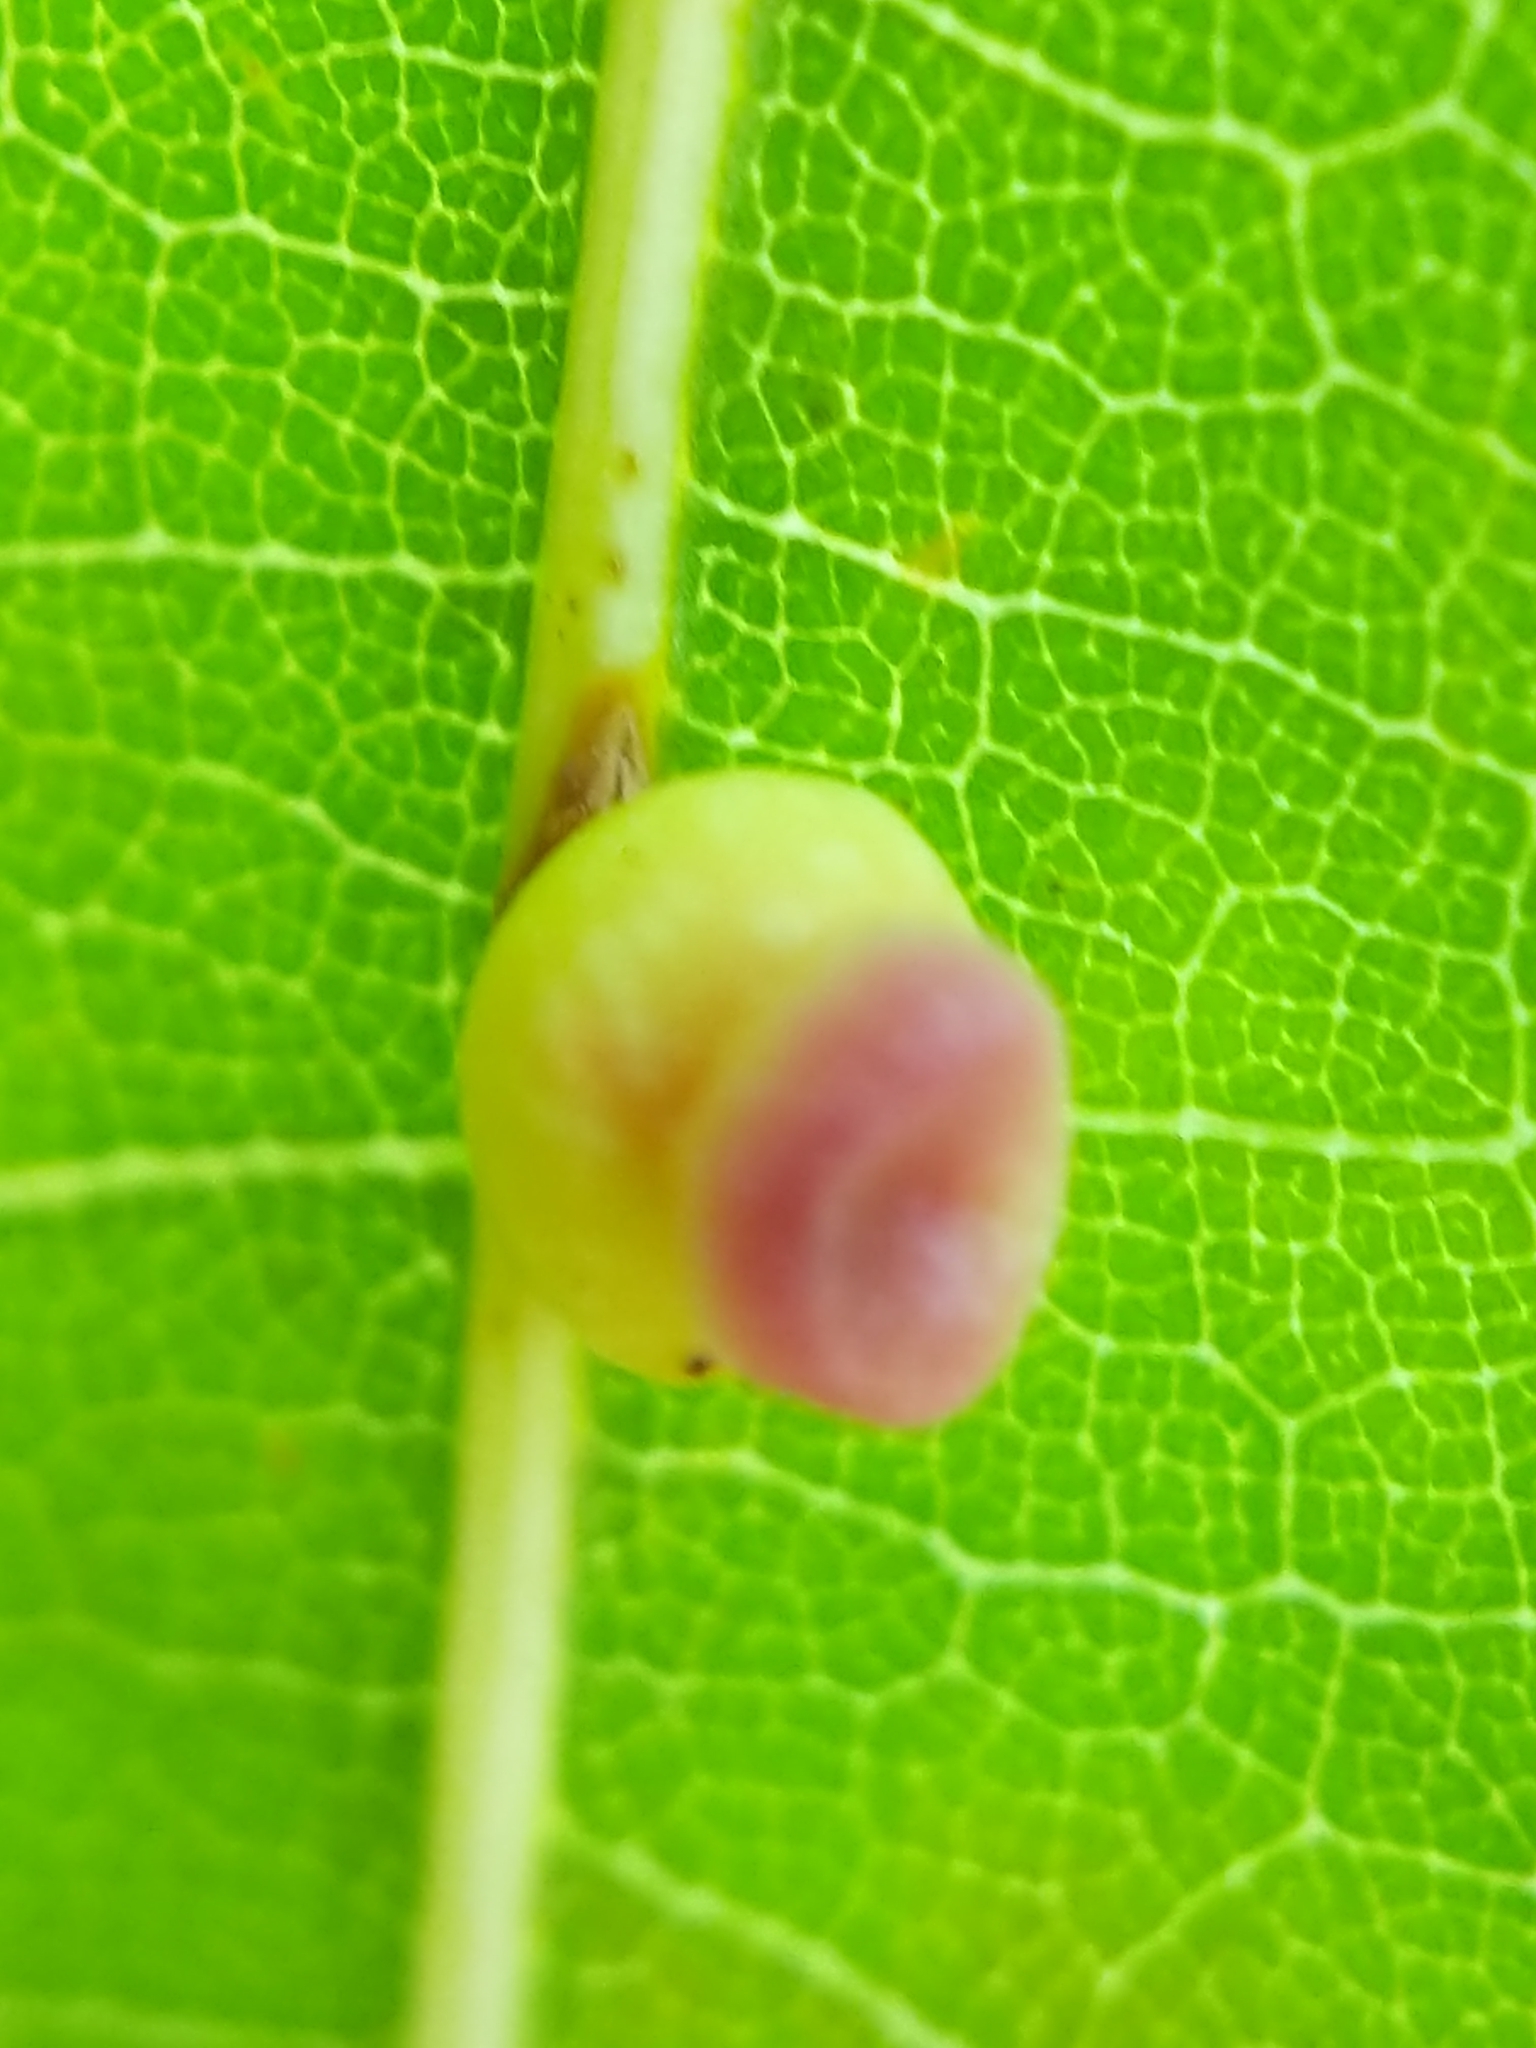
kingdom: Animalia
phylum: Arthropoda
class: Insecta
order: Hymenoptera
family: Cynipidae
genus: Kokkocynips
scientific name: Kokkocynips rileyi
